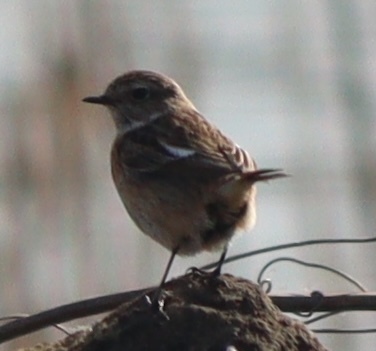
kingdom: Animalia
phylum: Chordata
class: Aves
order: Passeriformes
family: Muscicapidae
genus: Saxicola
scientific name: Saxicola rubicola
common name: European stonechat
